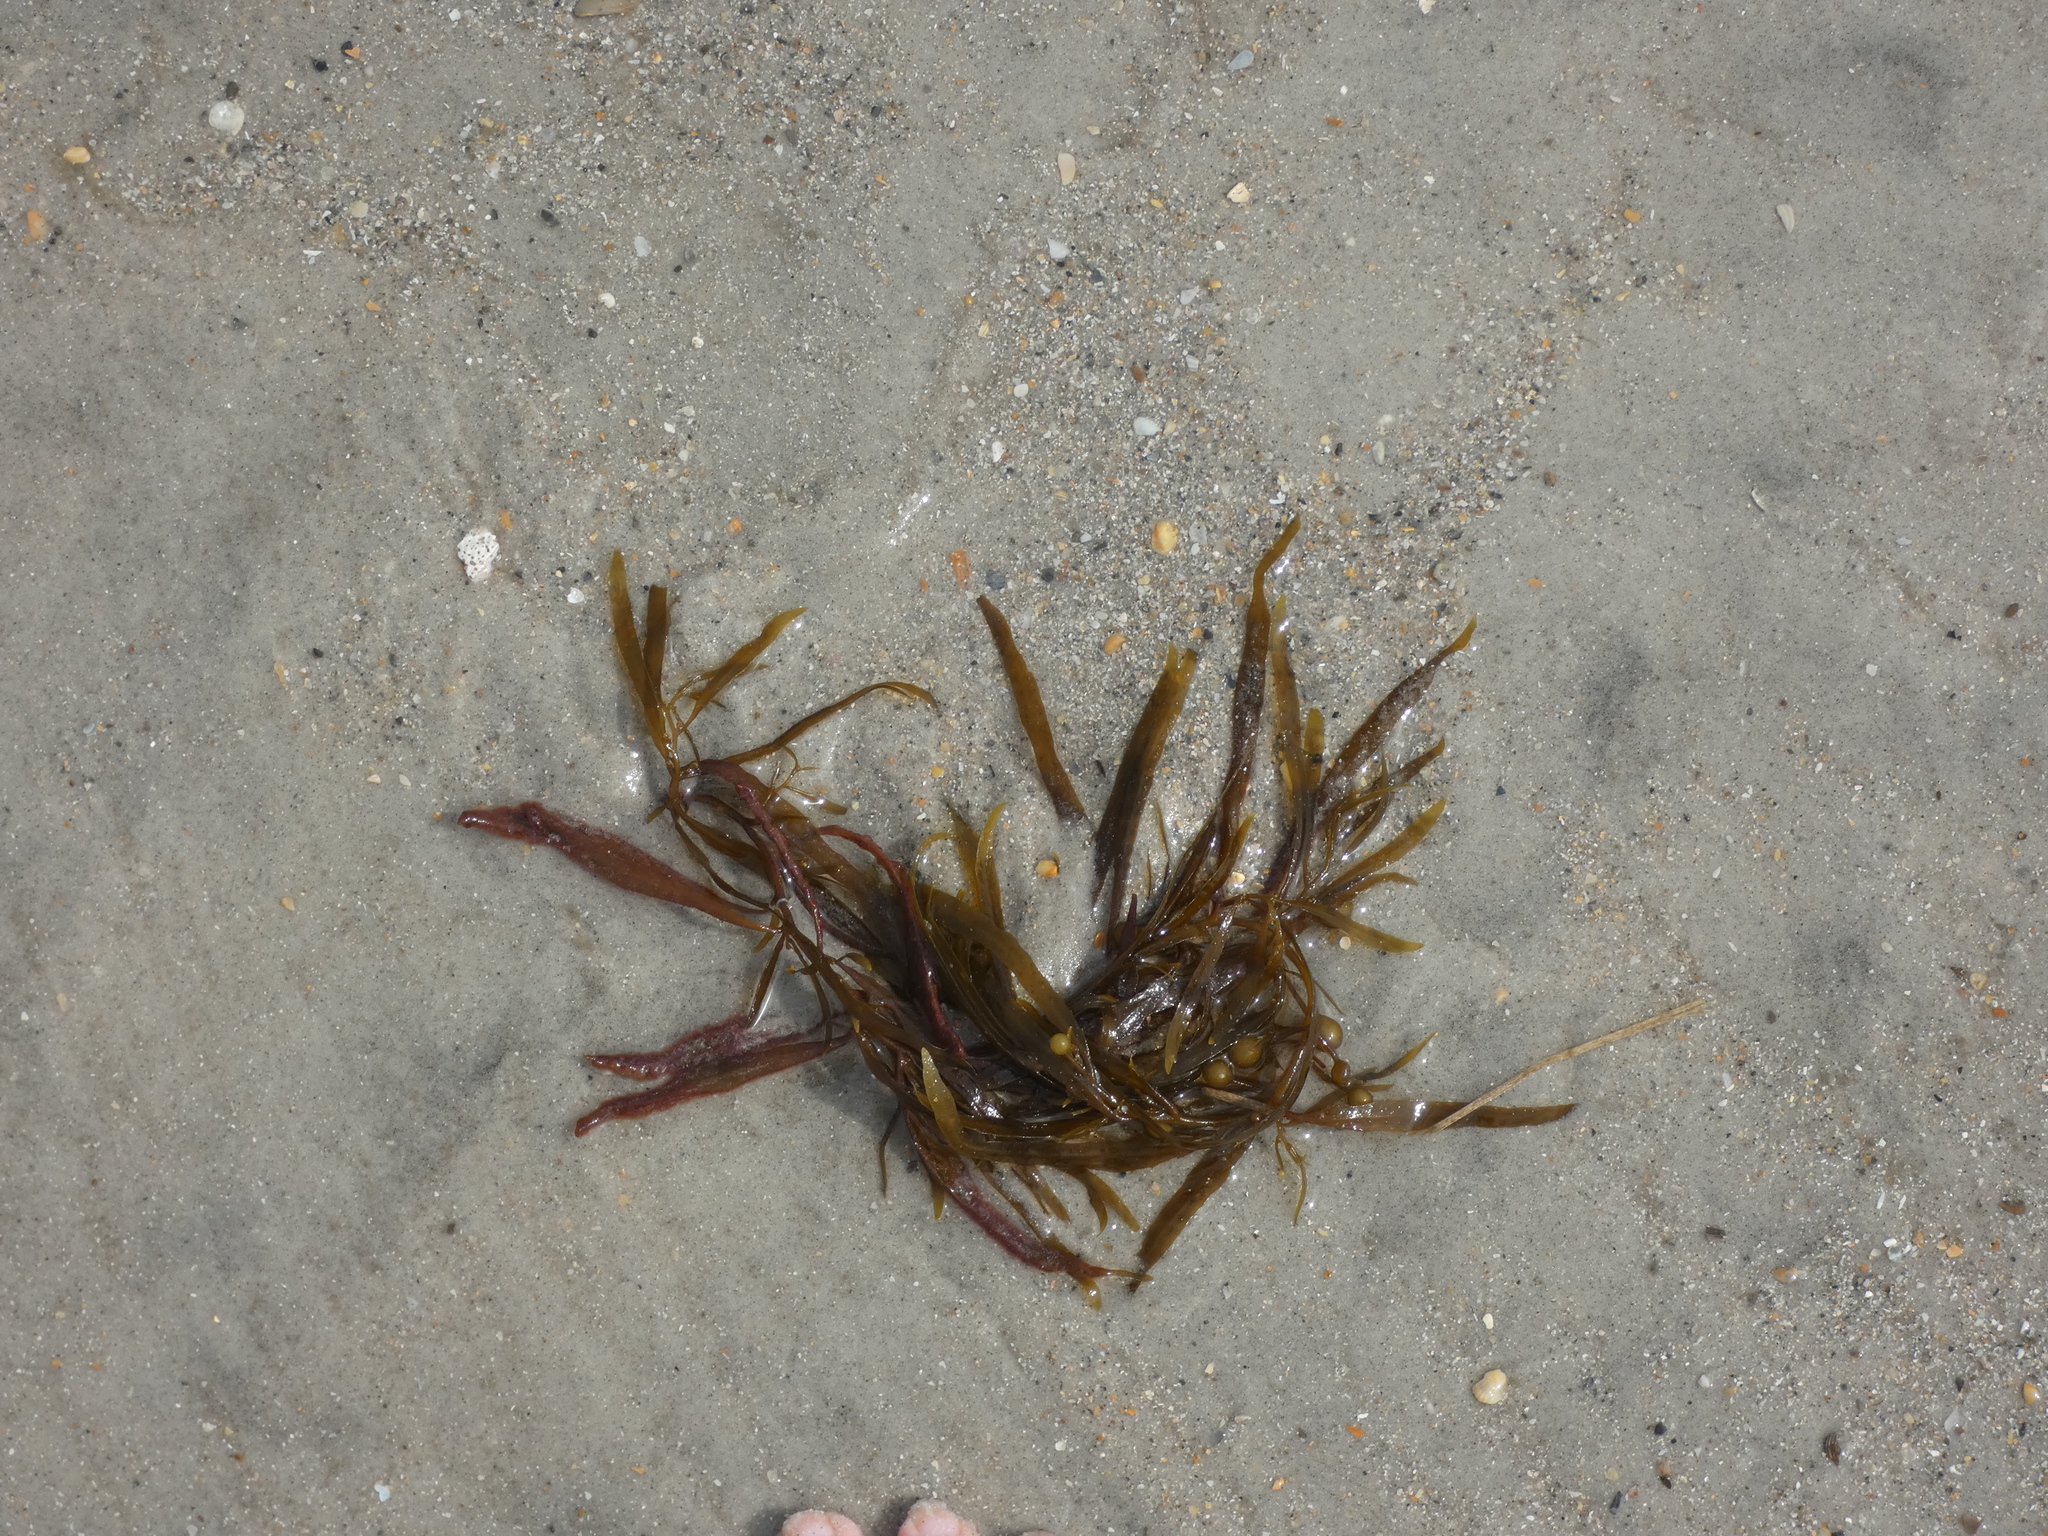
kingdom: Chromista
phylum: Ochrophyta
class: Phaeophyceae
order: Fucales
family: Sargassaceae
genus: Sargassum
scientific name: Sargassum fluitans
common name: Sargassum seaweed
